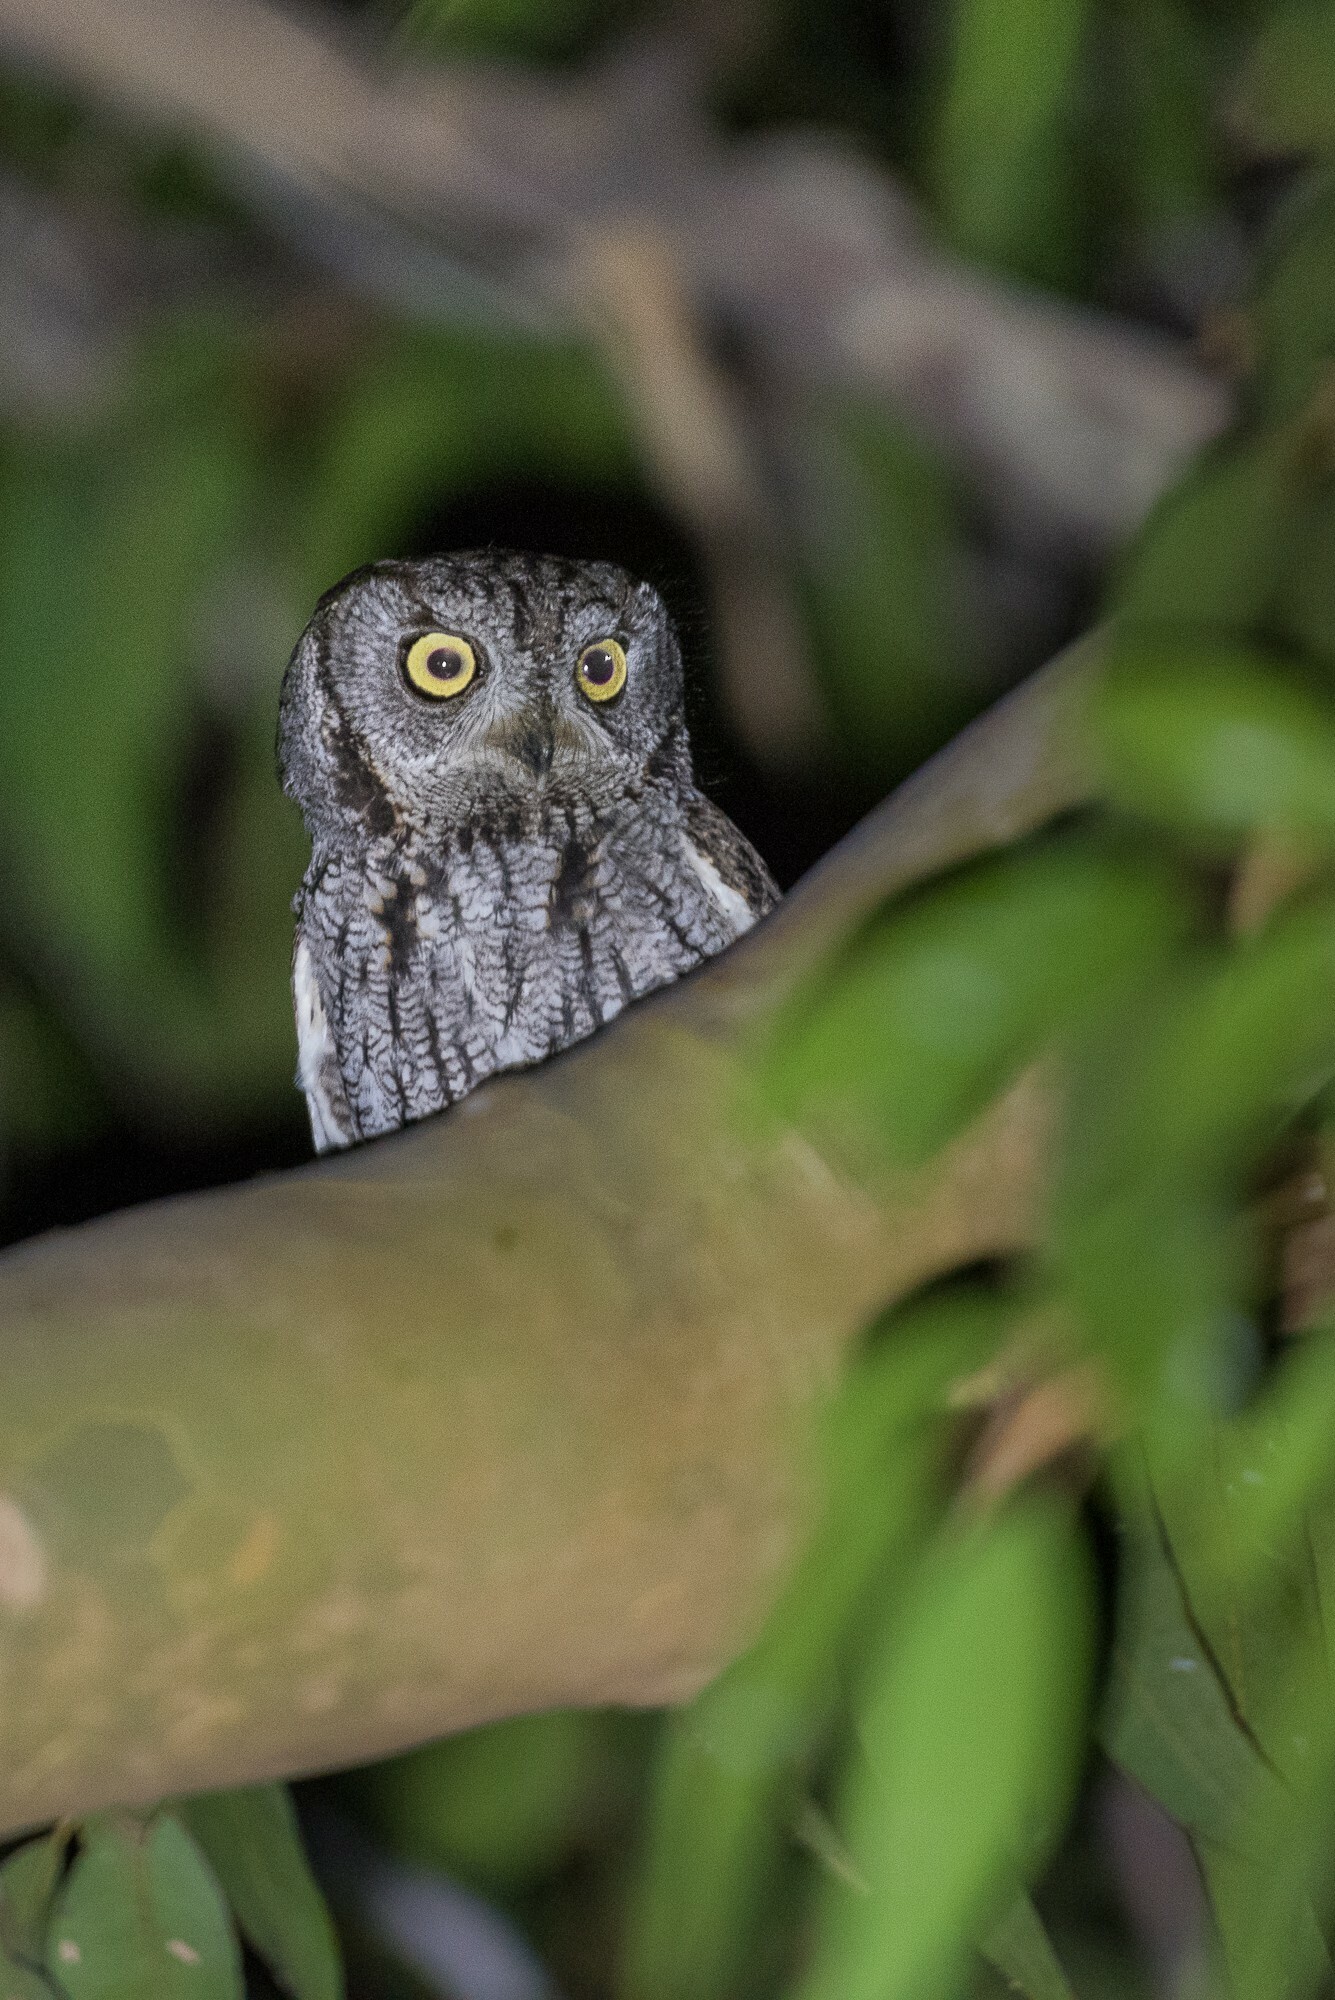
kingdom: Animalia
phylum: Chordata
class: Aves
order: Strigiformes
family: Strigidae
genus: Megascops
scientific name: Megascops kennicottii
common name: Western screech-owl
